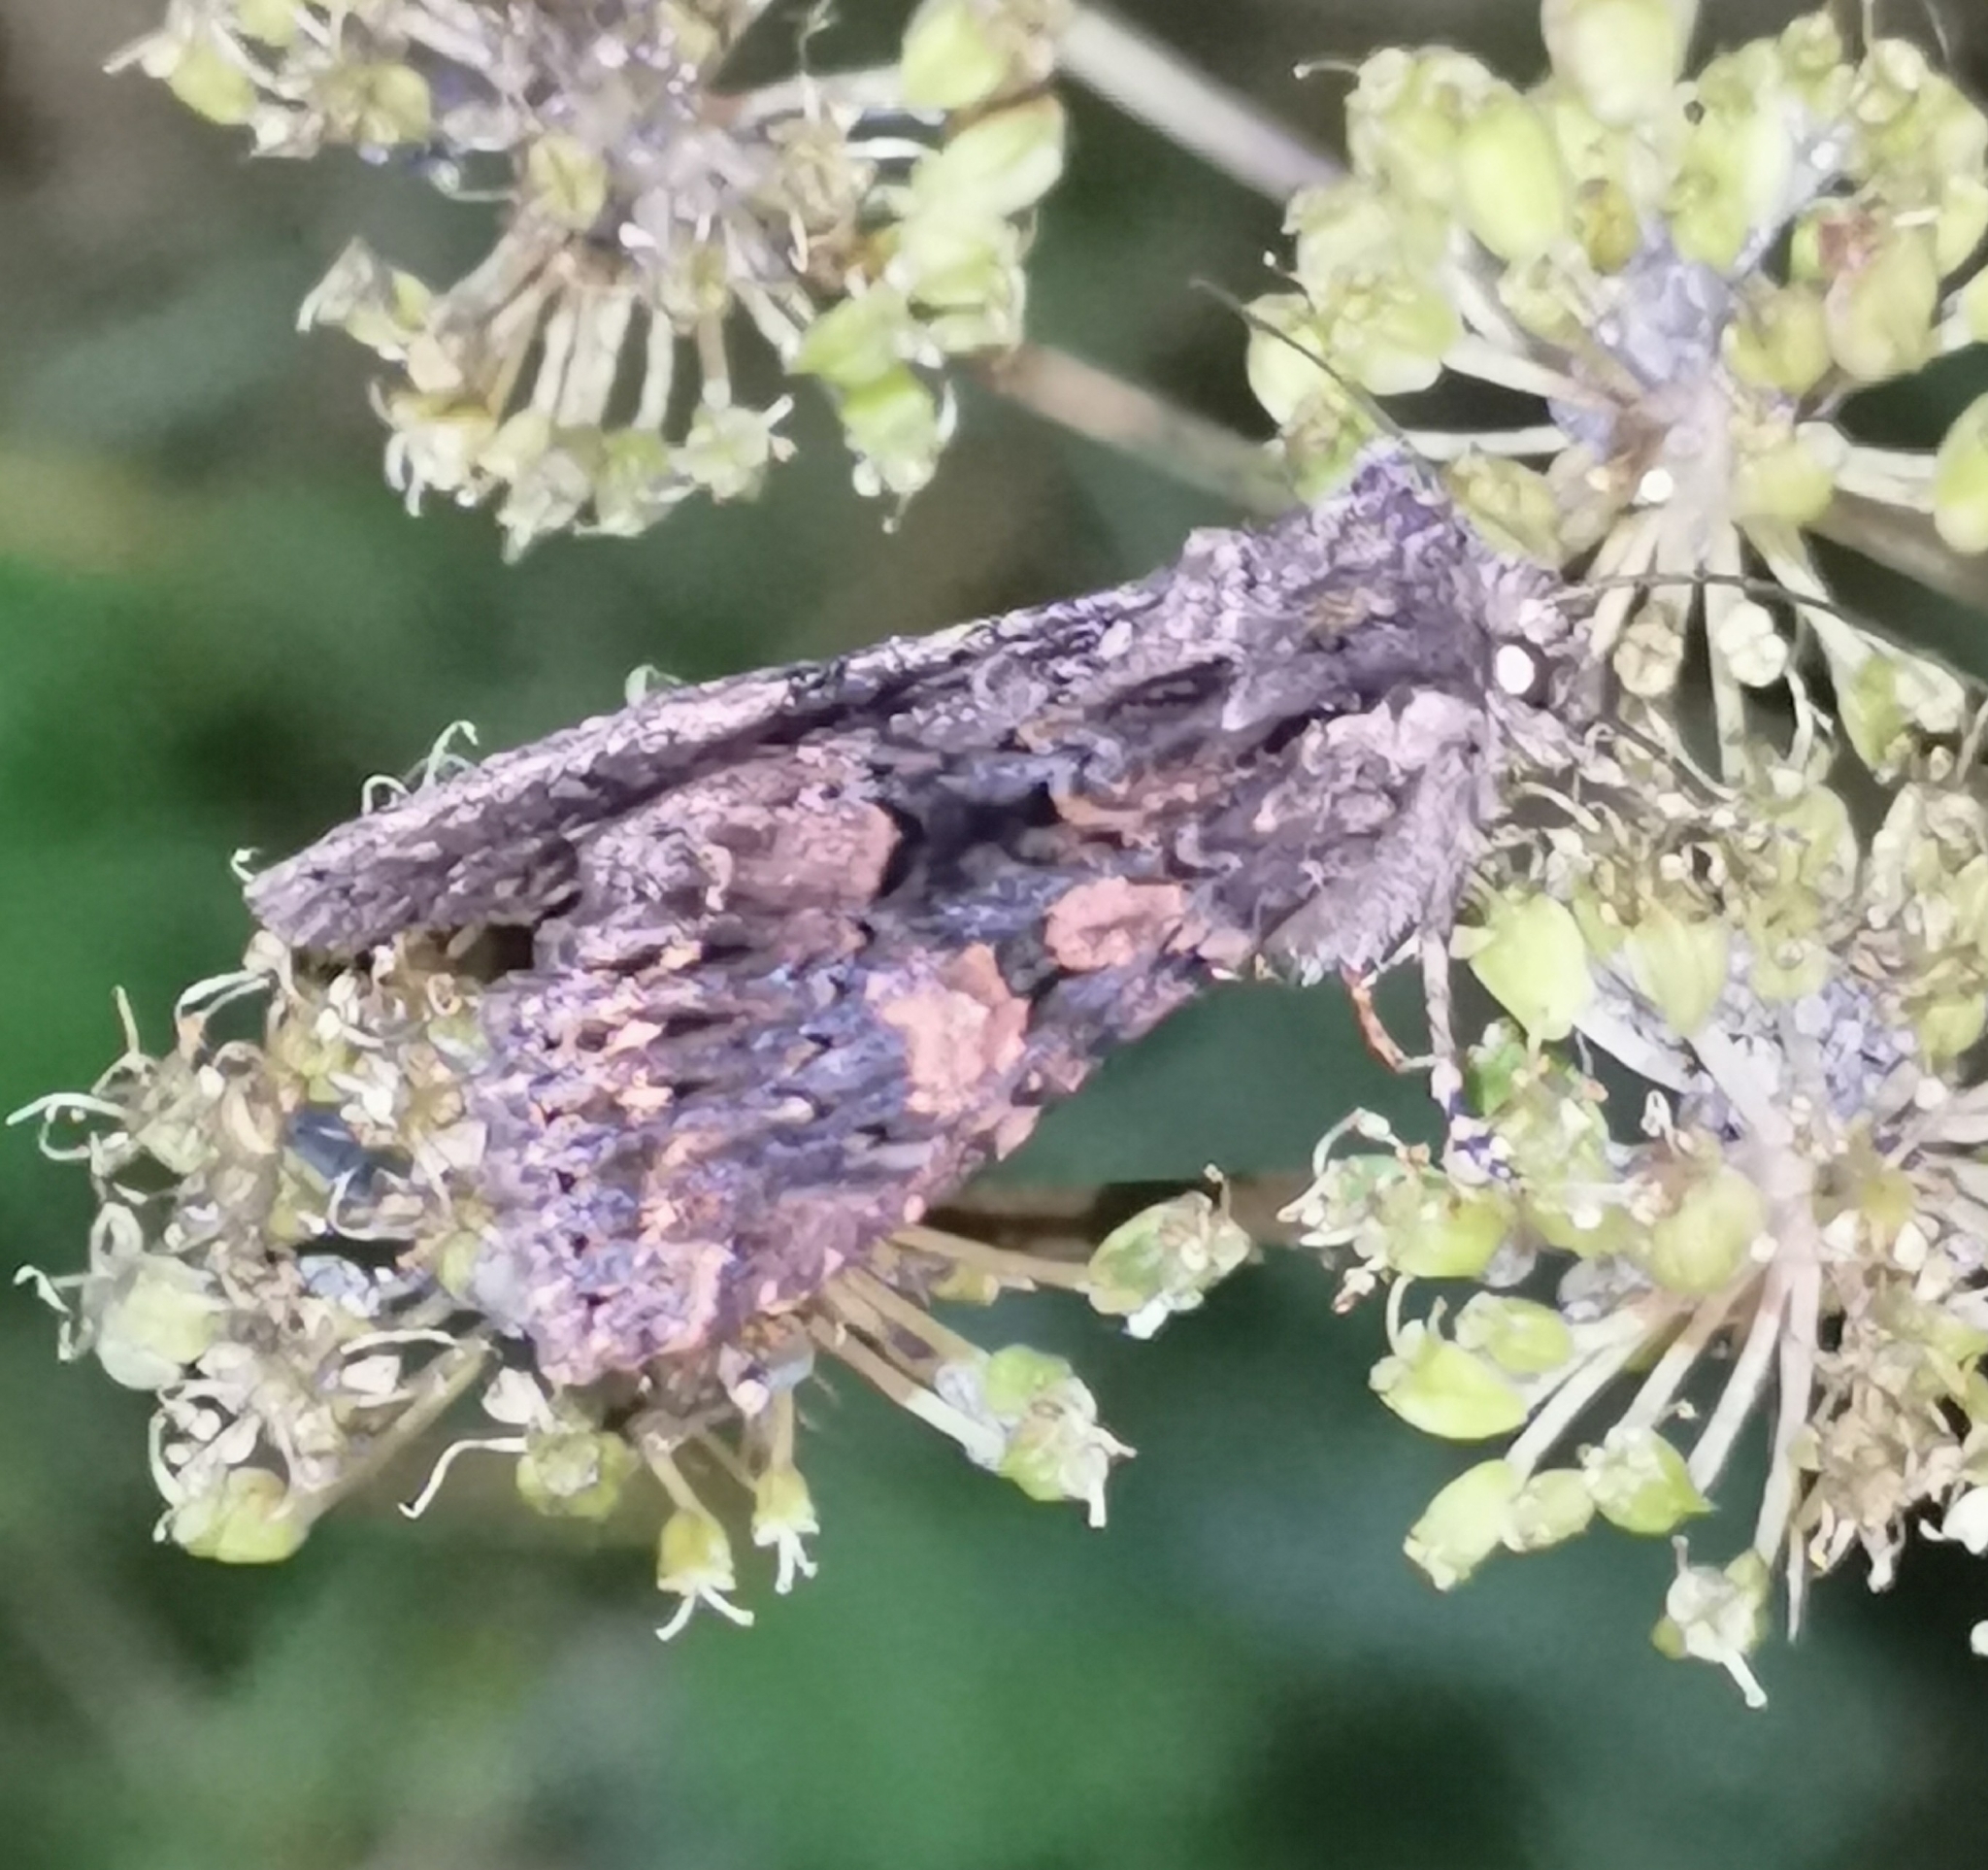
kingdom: Animalia
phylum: Arthropoda
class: Insecta
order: Lepidoptera
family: Noctuidae
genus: Mniotype
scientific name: Mniotype satura
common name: Beautiful arches
